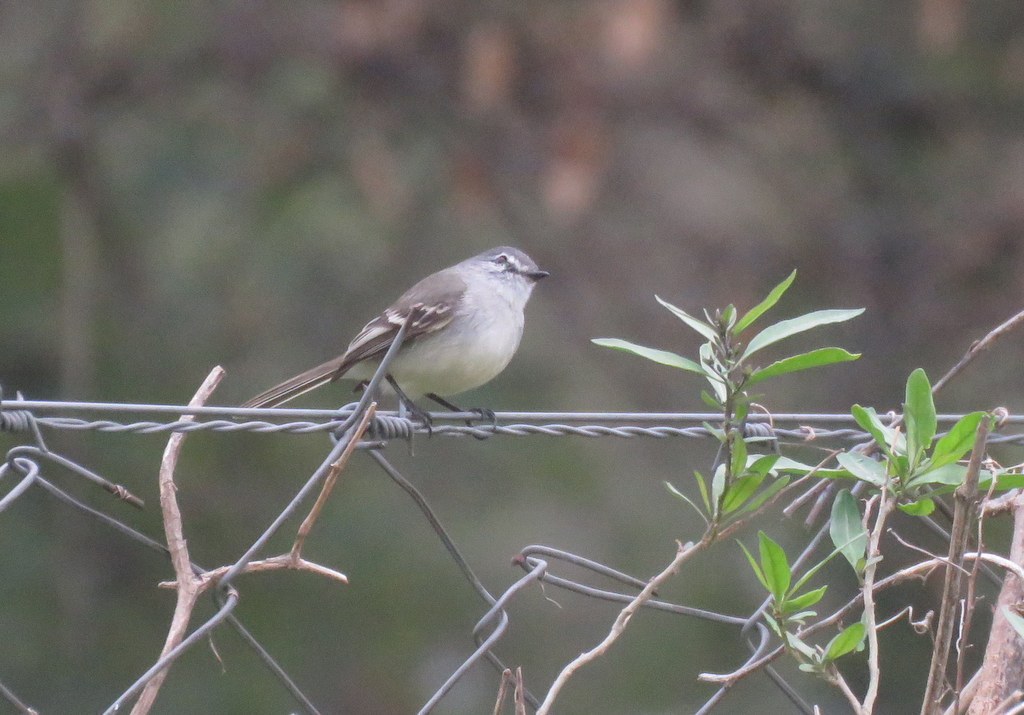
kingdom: Animalia
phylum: Chordata
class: Aves
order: Passeriformes
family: Tyrannidae
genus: Serpophaga
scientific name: Serpophaga subcristata
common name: White-crested tyrannulet
